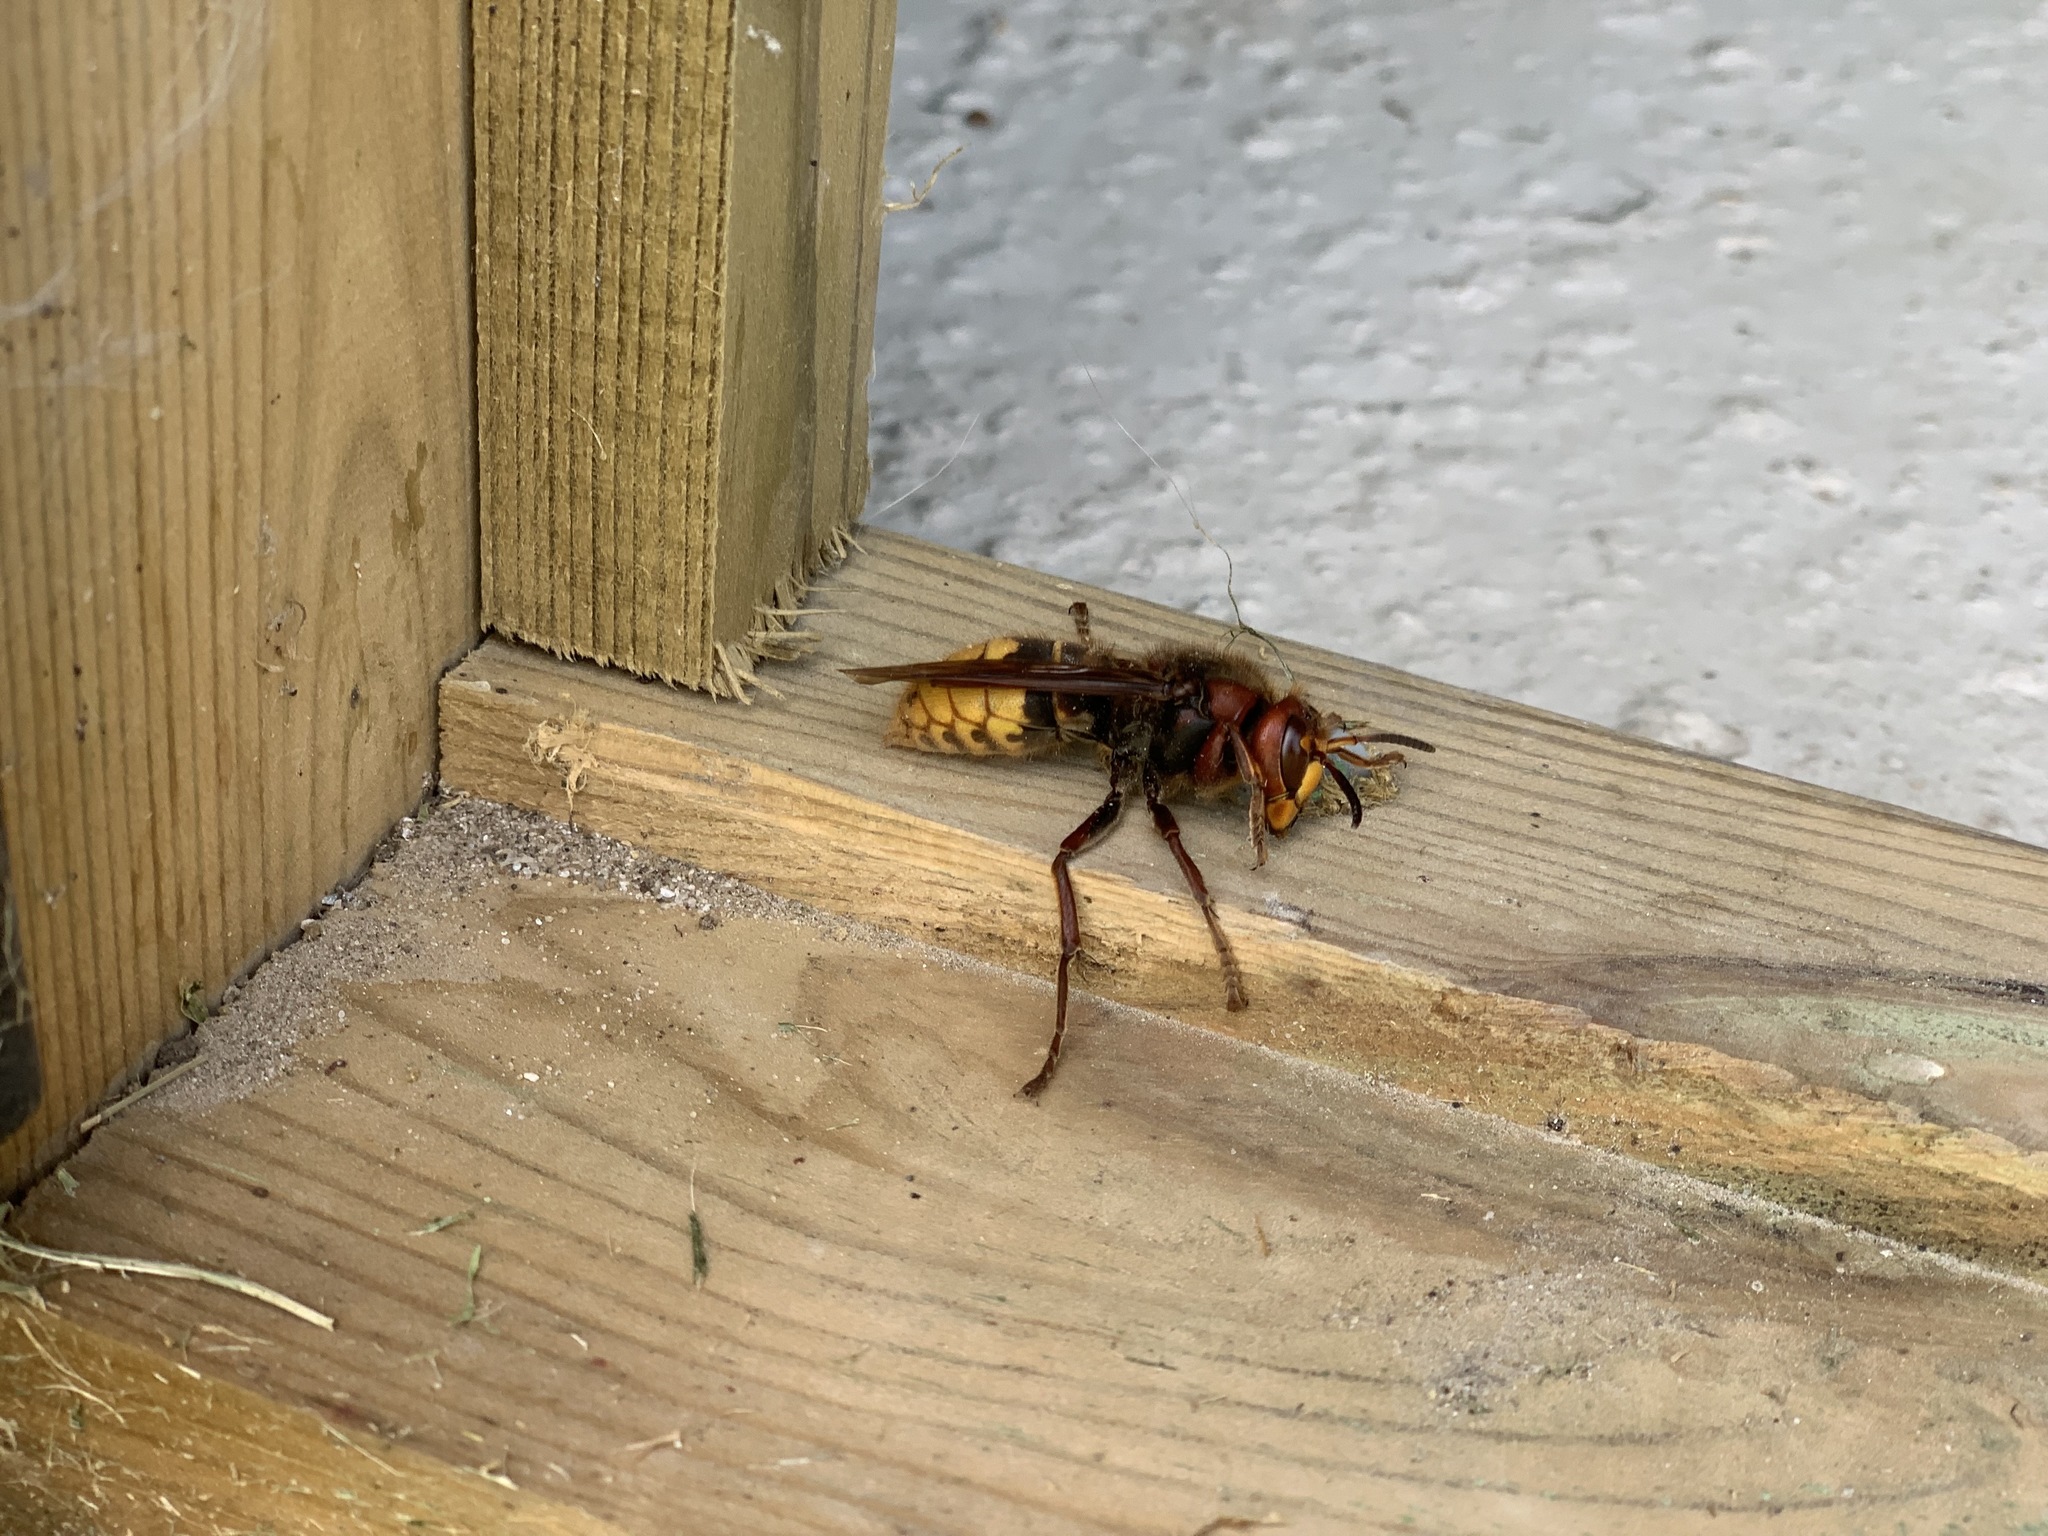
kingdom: Animalia
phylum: Arthropoda
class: Insecta
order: Hymenoptera
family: Vespidae
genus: Vespa
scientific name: Vespa crabro
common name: Hornet
